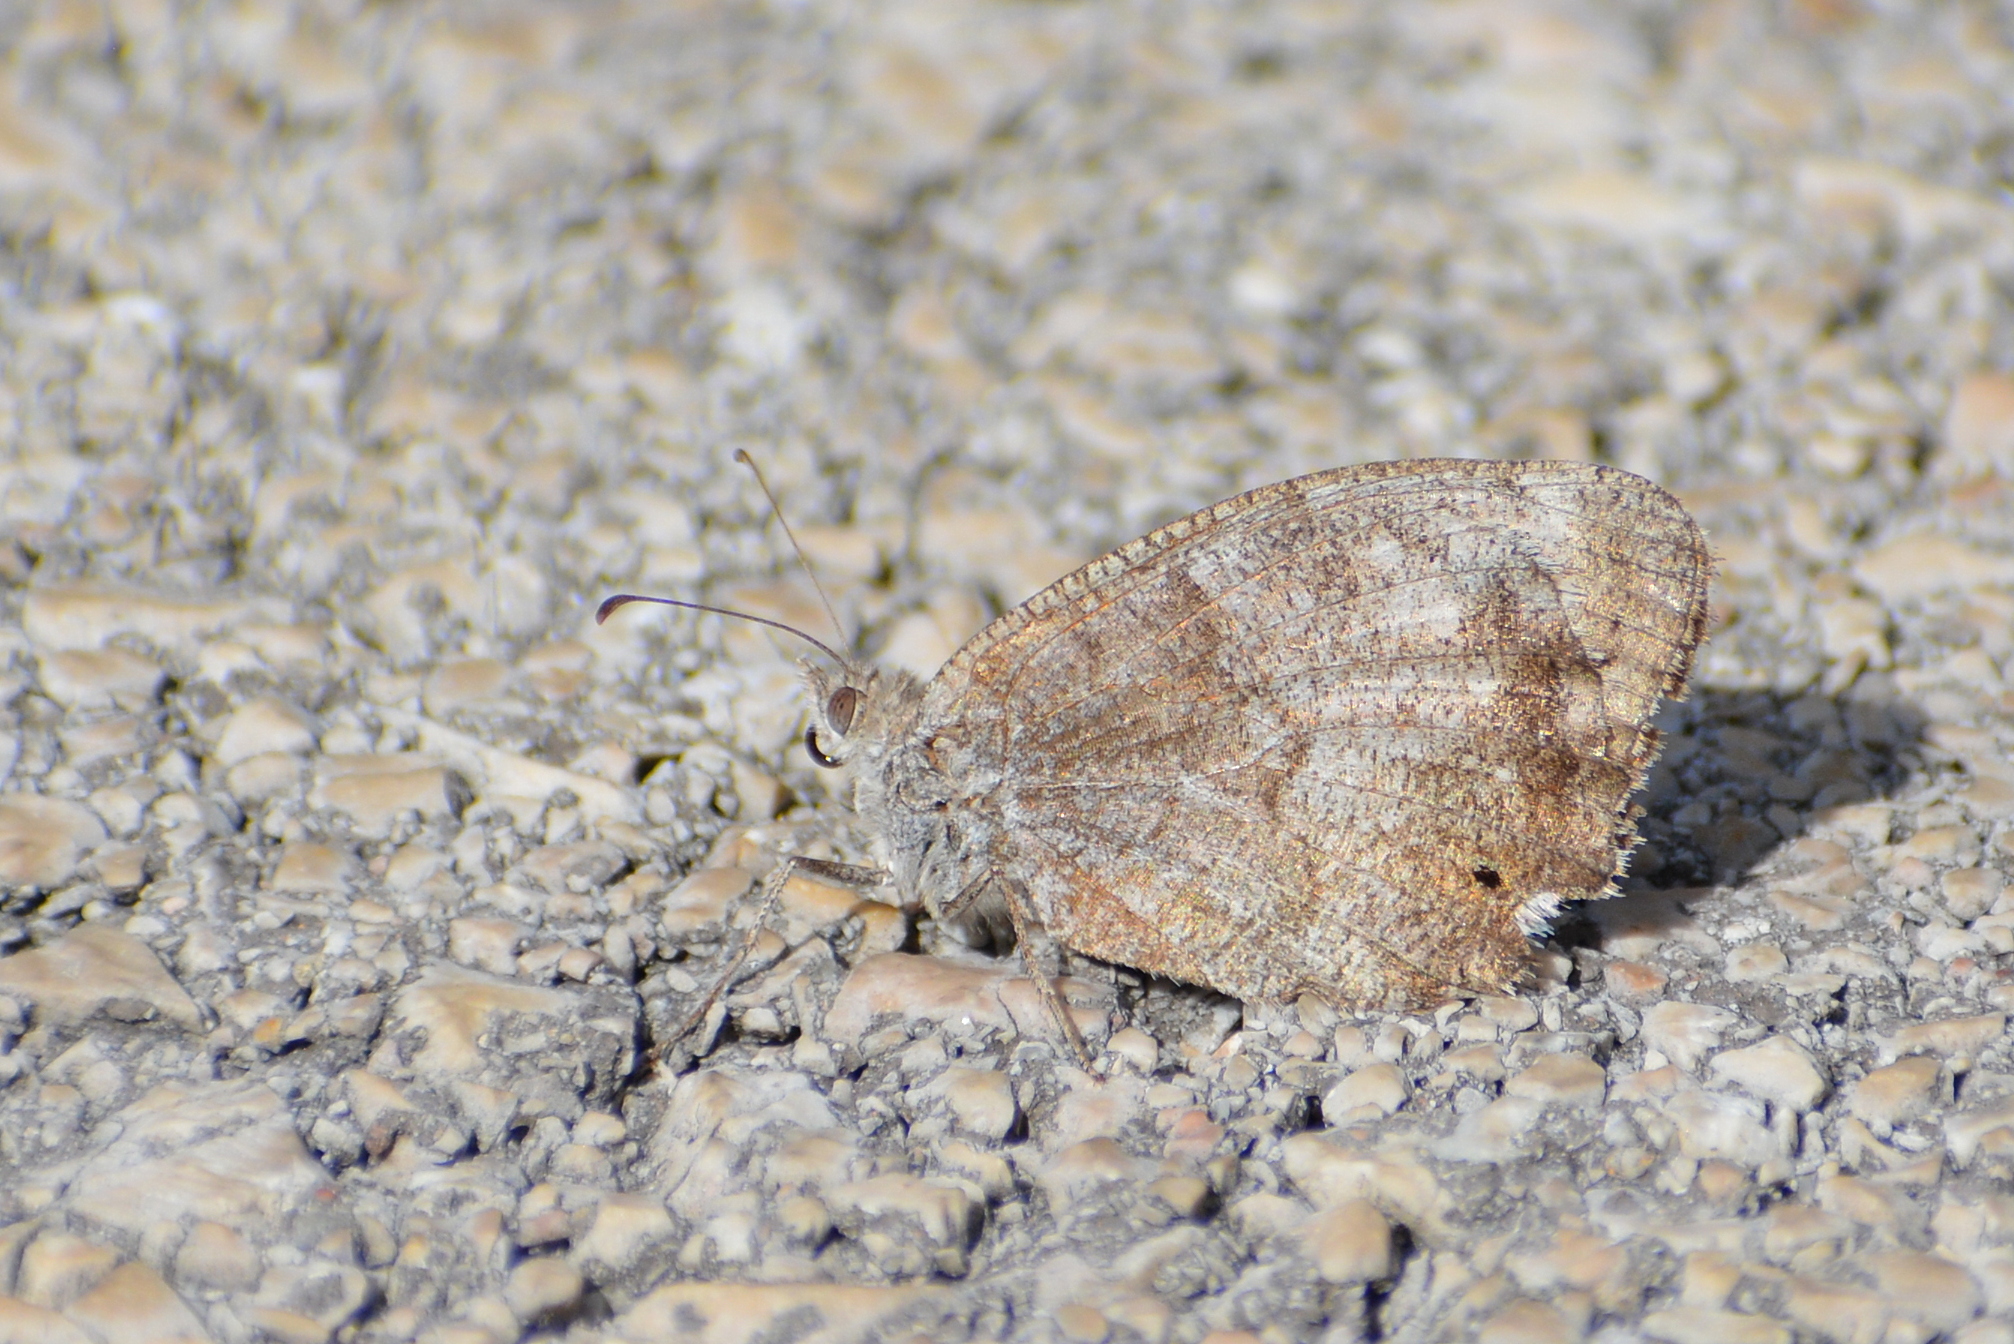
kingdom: Animalia
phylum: Arthropoda
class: Insecta
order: Lepidoptera
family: Nymphalidae
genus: Hipparchia
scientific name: Hipparchia statilinus
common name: Tree grayling
